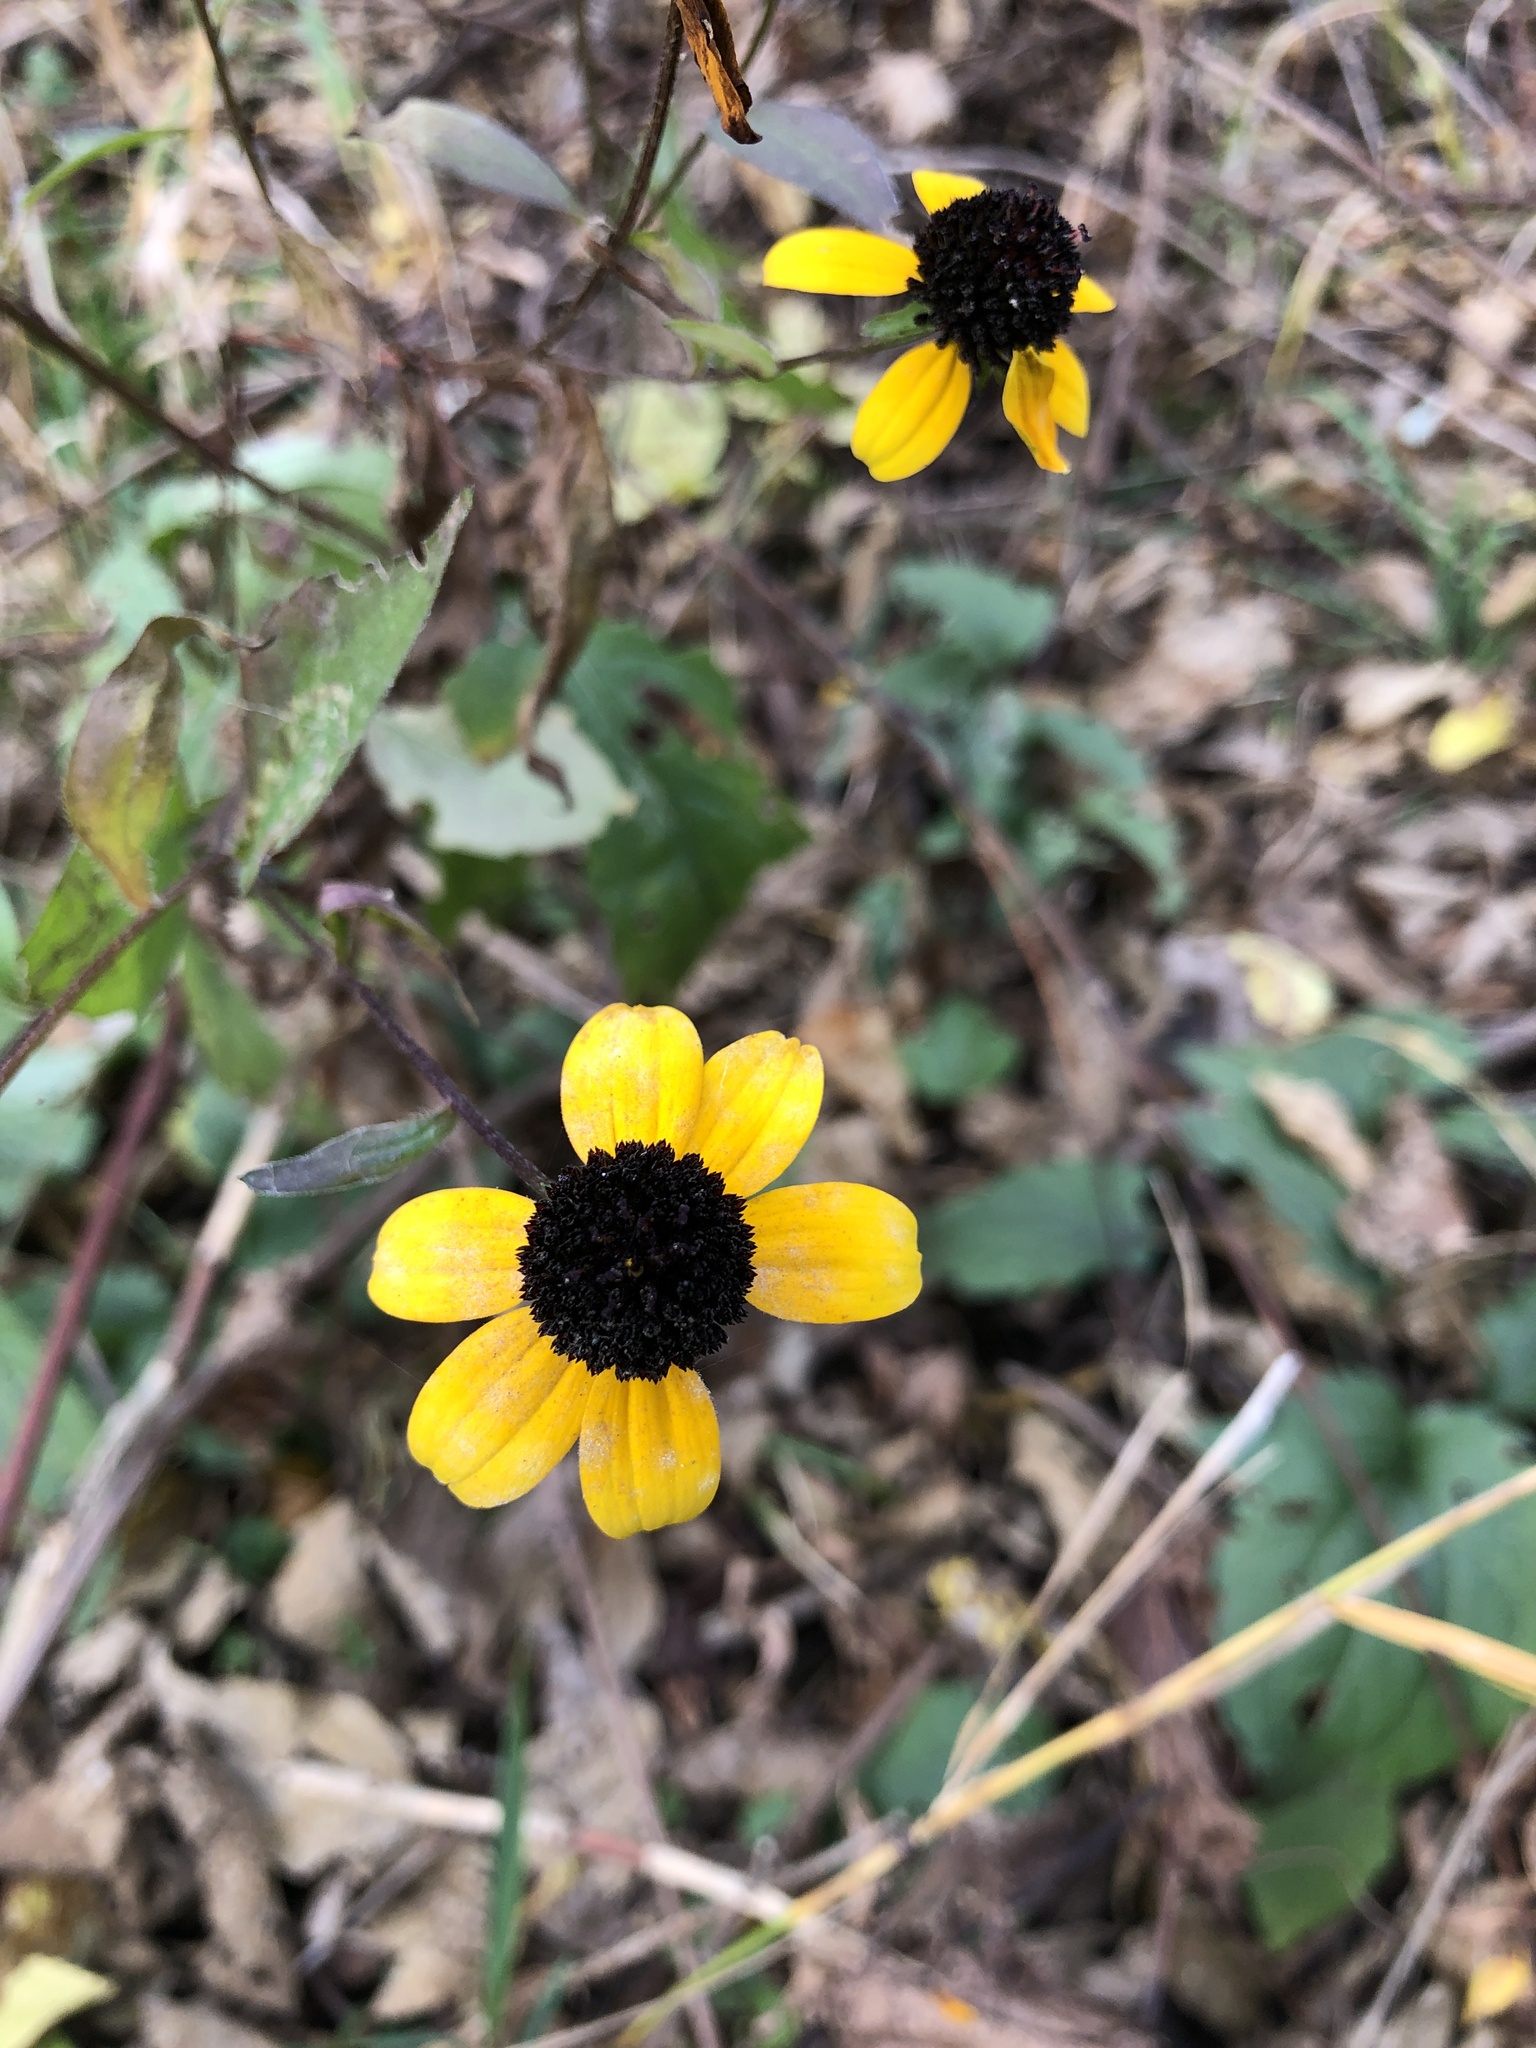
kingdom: Plantae
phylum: Tracheophyta
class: Magnoliopsida
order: Asterales
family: Asteraceae
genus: Rudbeckia
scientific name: Rudbeckia triloba
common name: Thin-leaved coneflower
